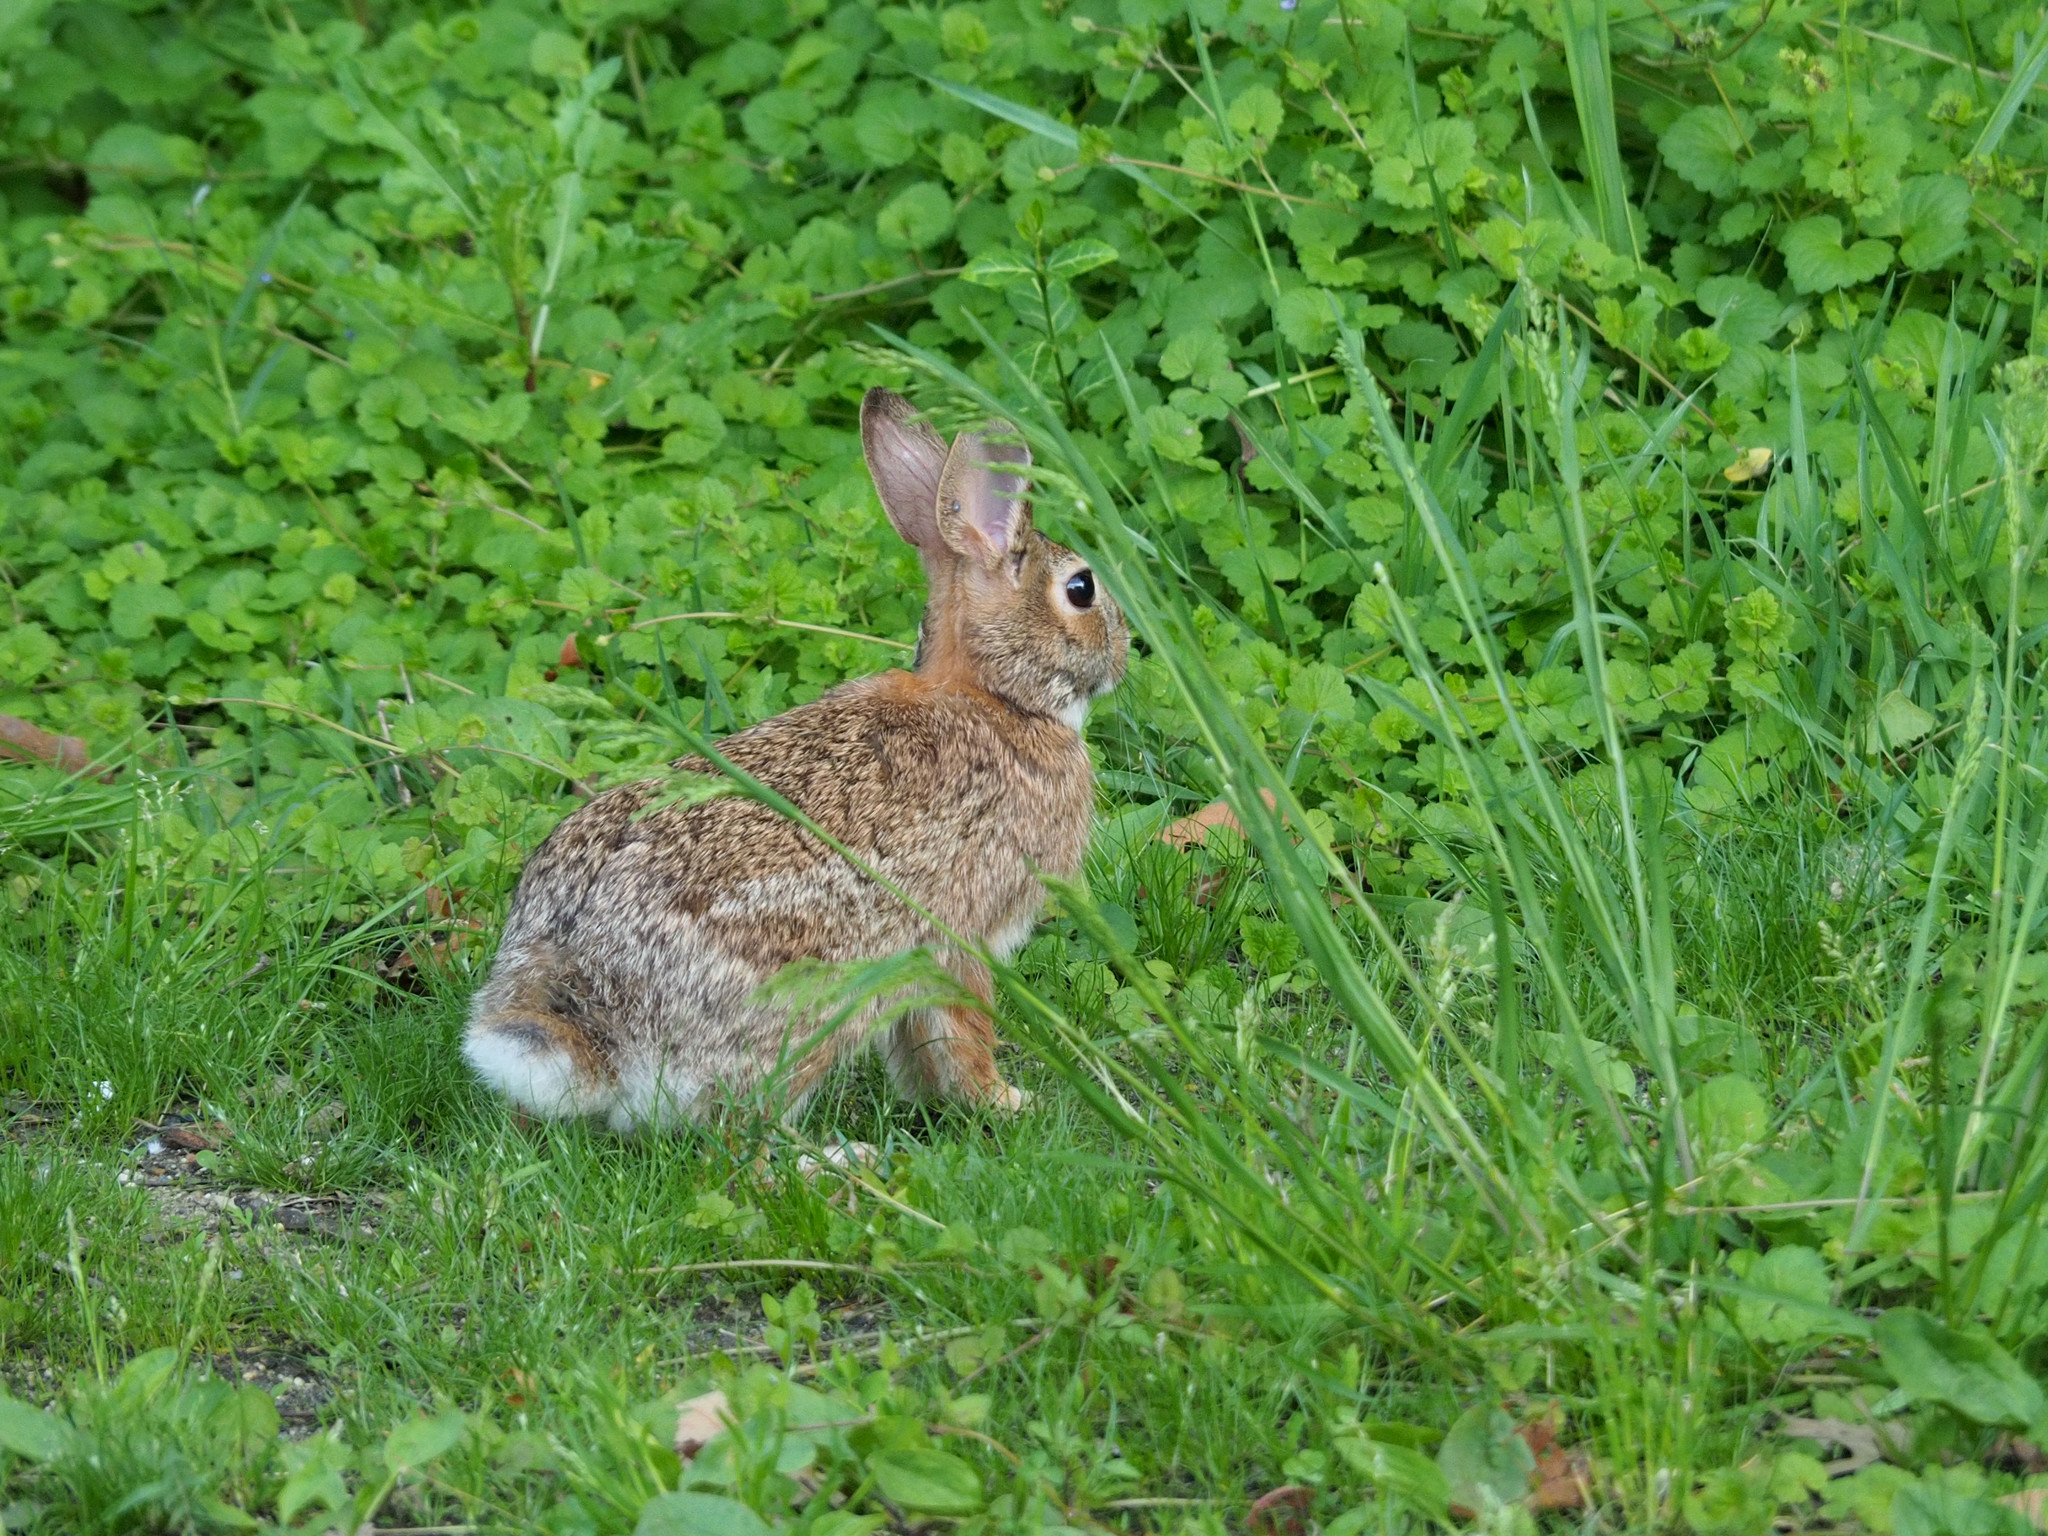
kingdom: Animalia
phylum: Chordata
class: Mammalia
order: Lagomorpha
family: Leporidae
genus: Sylvilagus
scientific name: Sylvilagus floridanus
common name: Eastern cottontail
